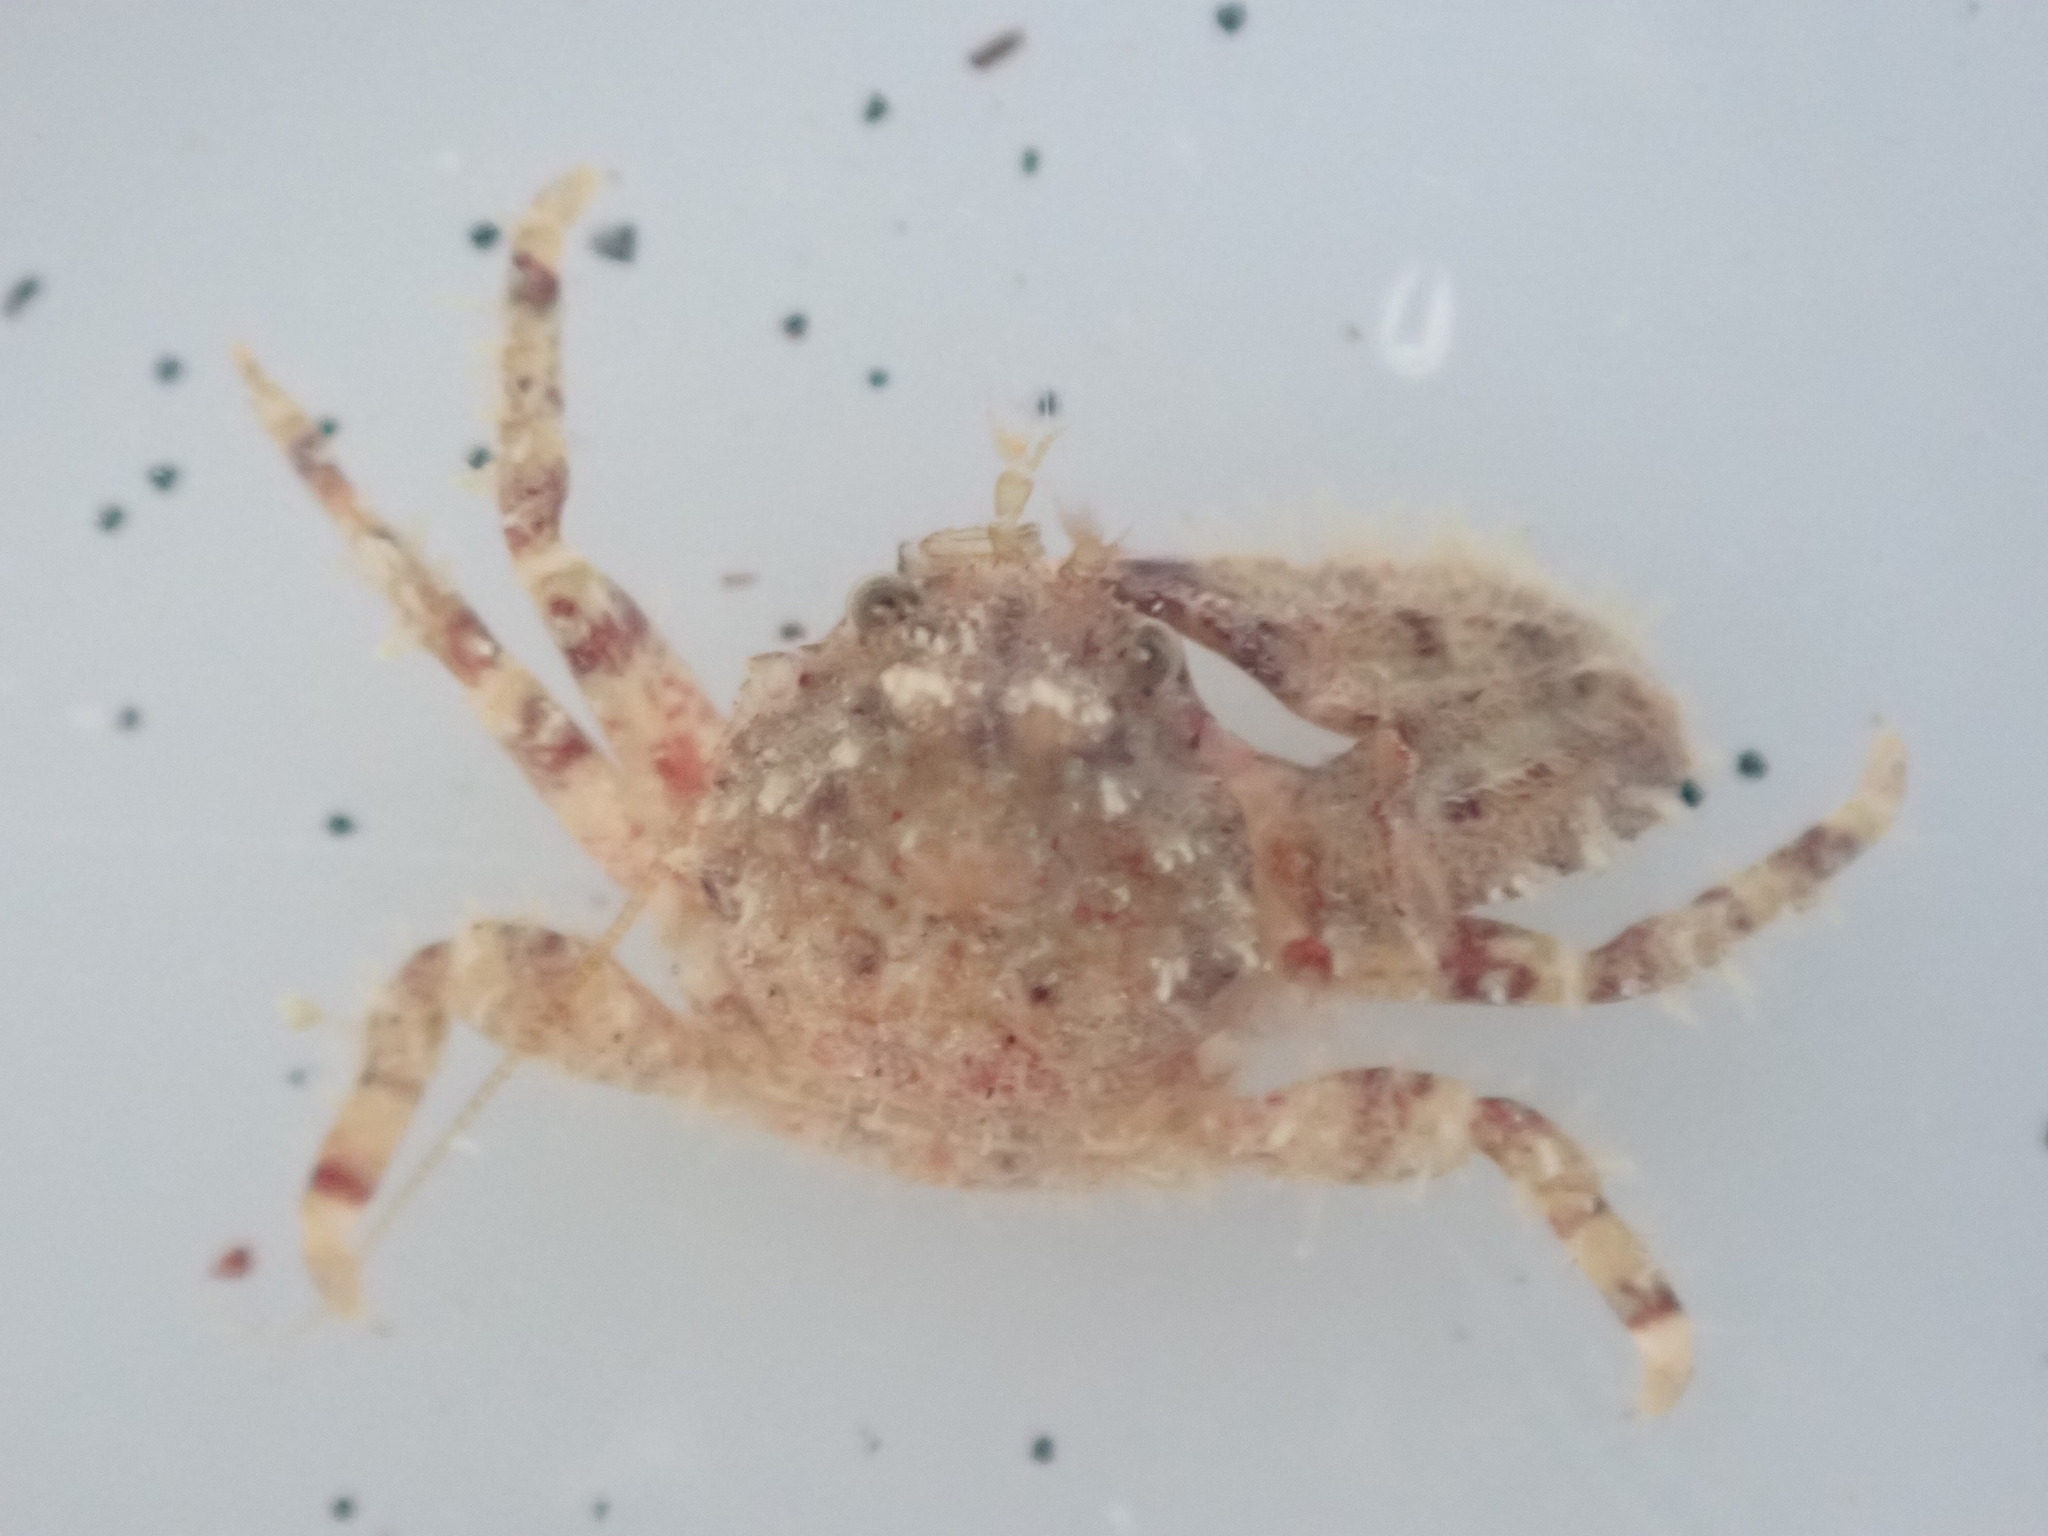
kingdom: Animalia
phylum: Arthropoda
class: Malacostraca
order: Decapoda
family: Porcellanidae
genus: Petrolisthes
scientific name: Petrolisthes novaezelandiae
